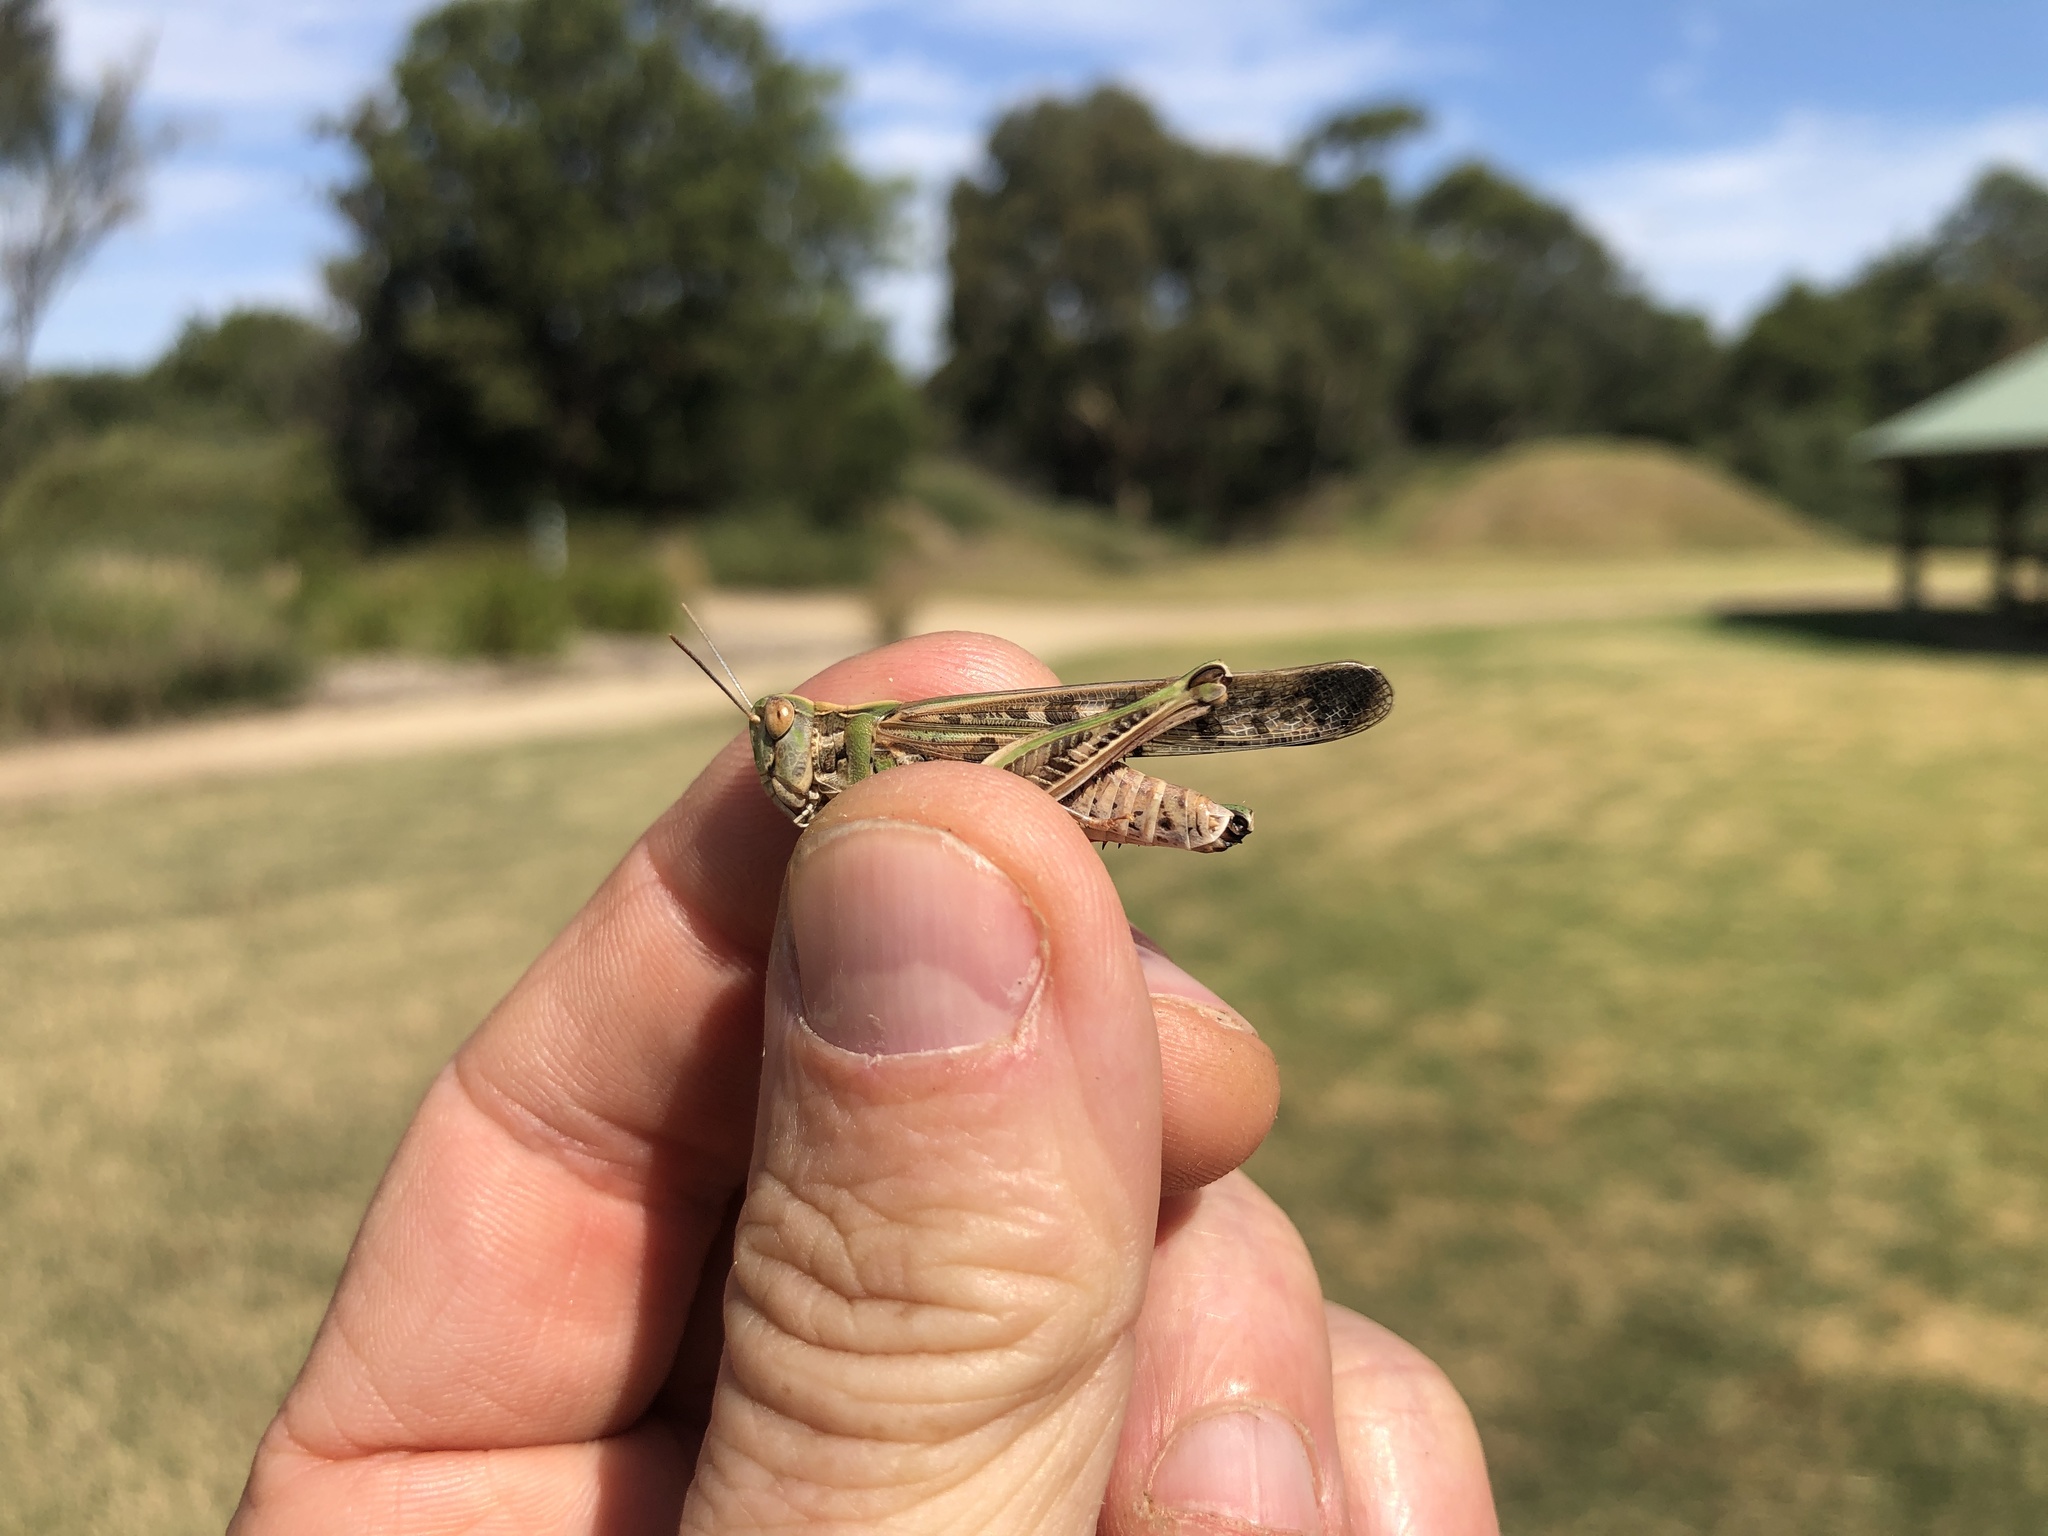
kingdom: Animalia
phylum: Arthropoda
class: Insecta
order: Orthoptera
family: Acrididae
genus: Chortoicetes
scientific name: Chortoicetes terminifera
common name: Australian plague locust
